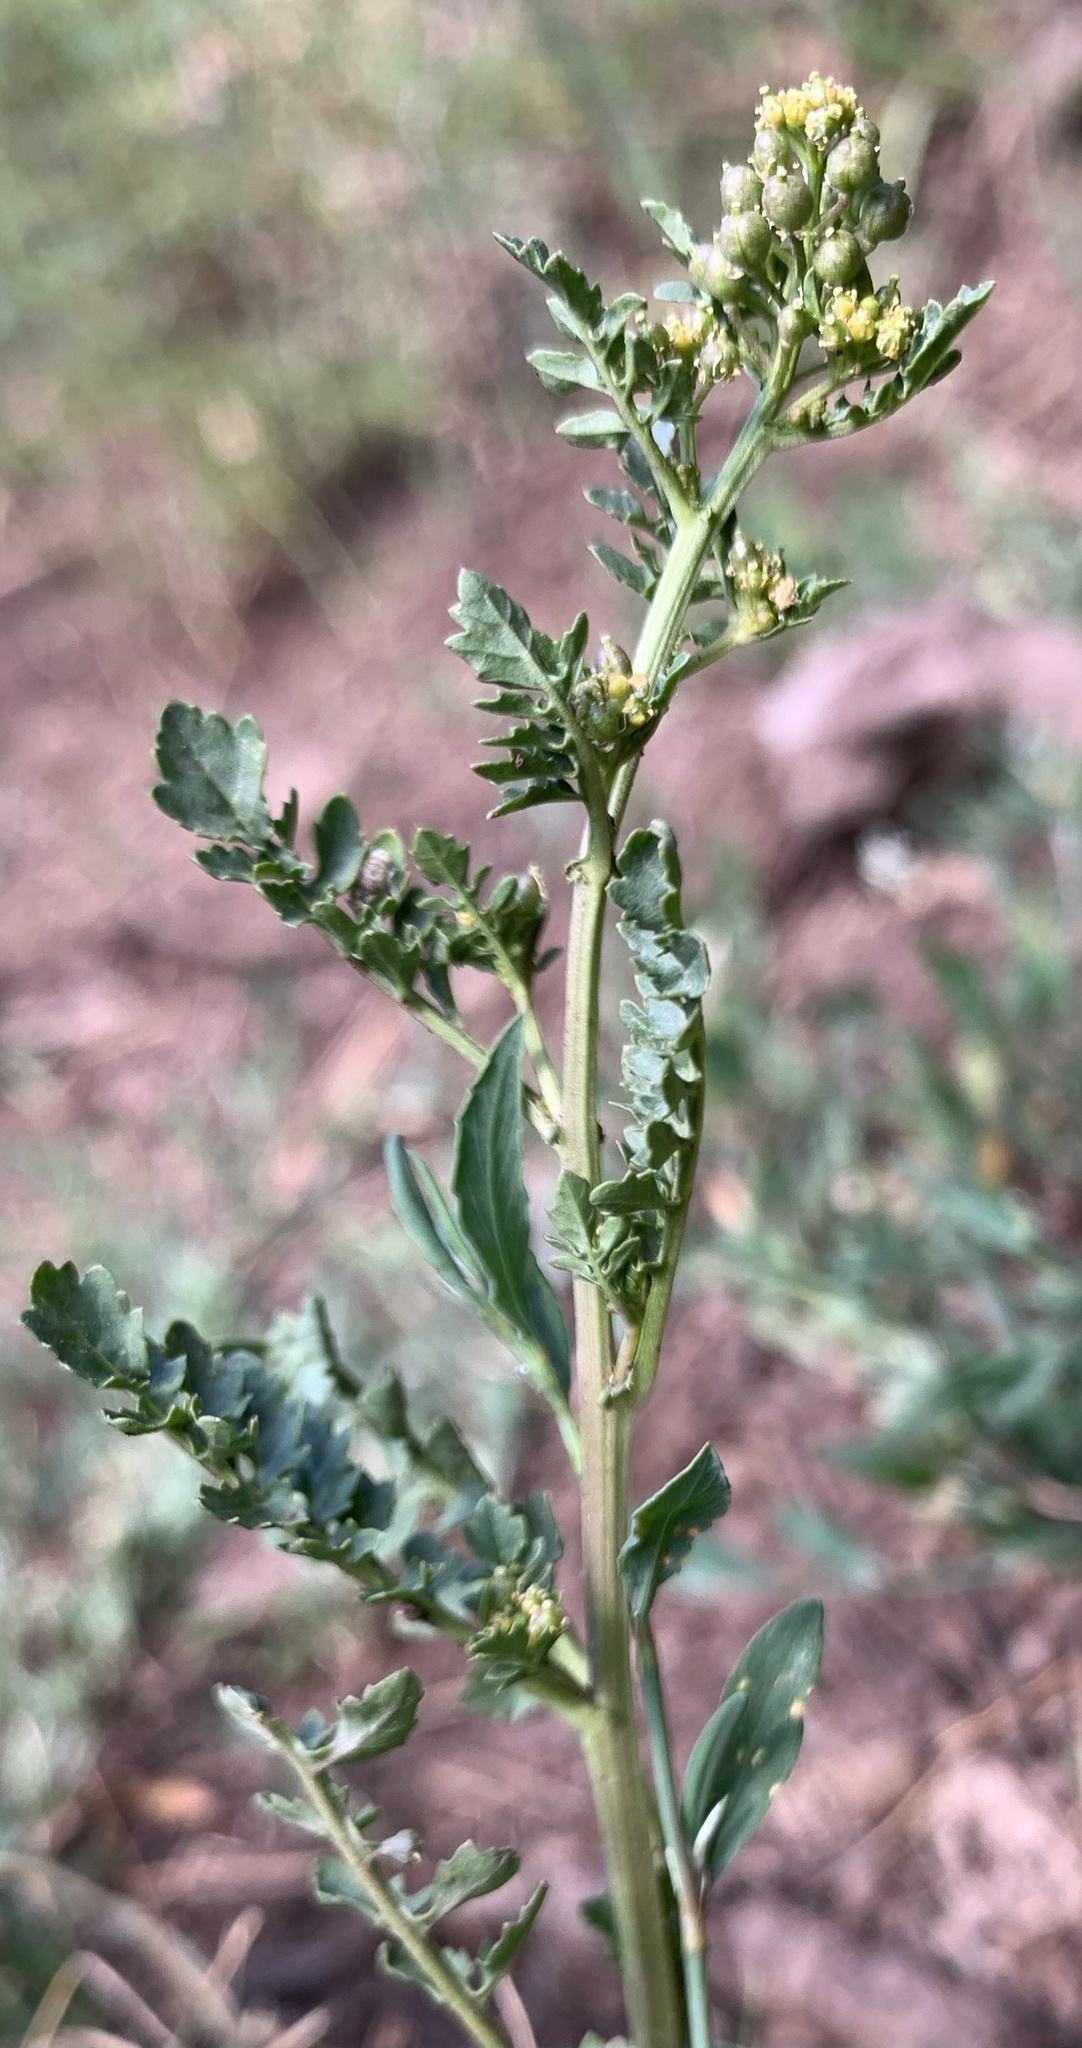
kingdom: Plantae
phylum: Tracheophyta
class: Magnoliopsida
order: Brassicales
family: Brassicaceae
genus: Rorippa
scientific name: Rorippa sphaerocarpa
